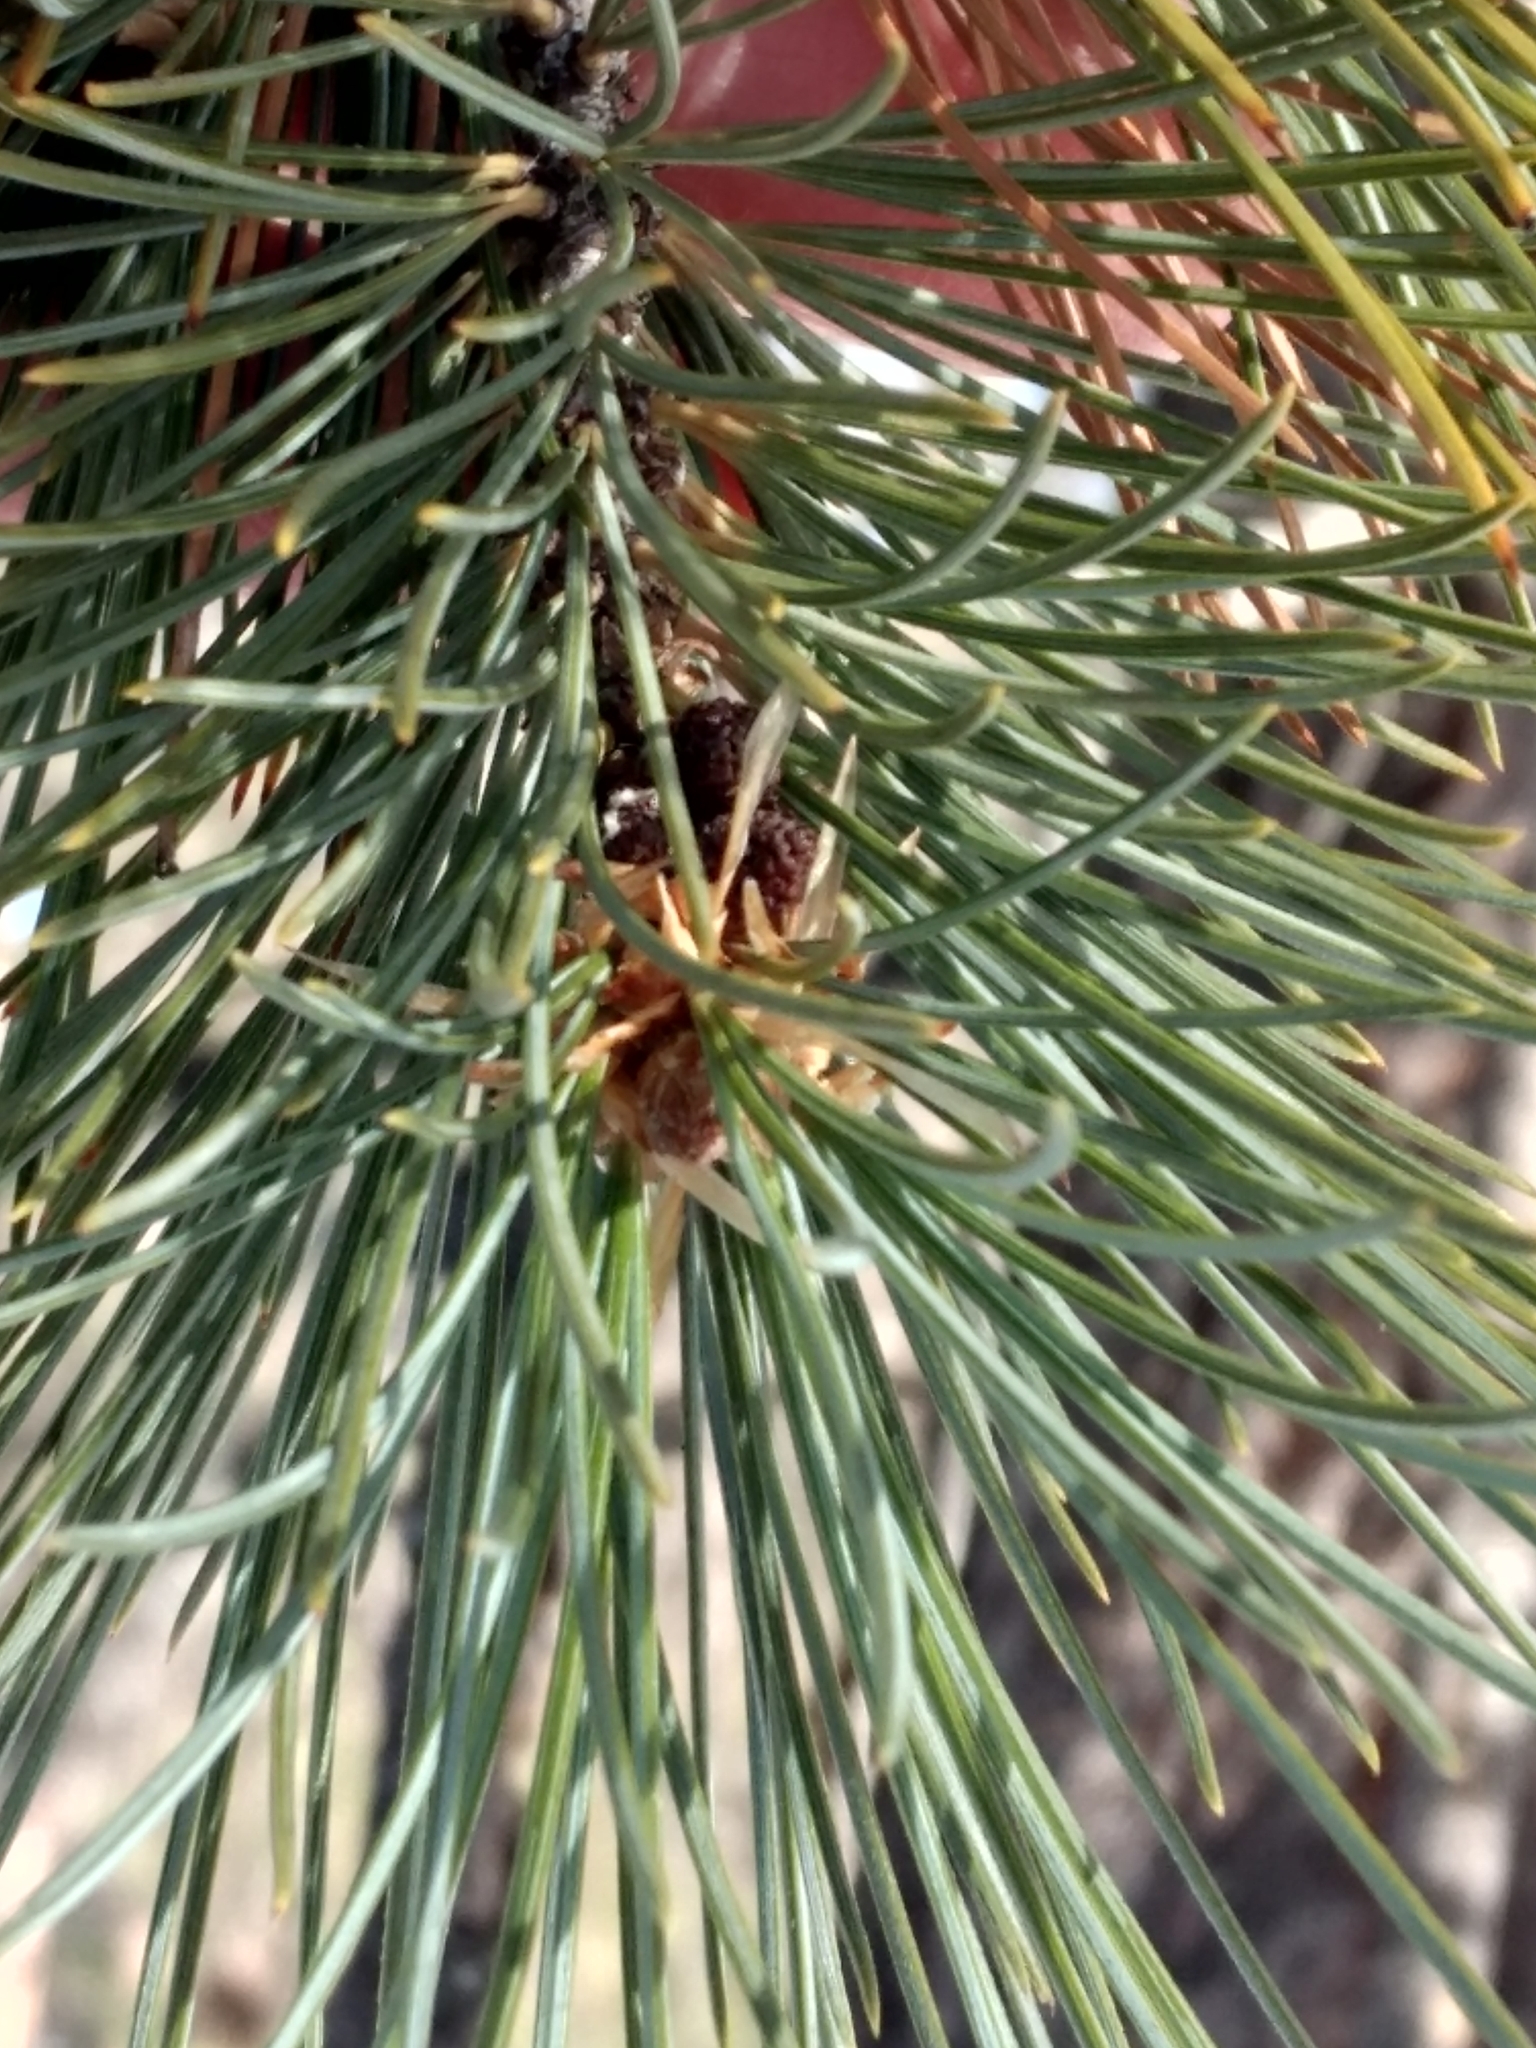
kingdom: Plantae
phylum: Tracheophyta
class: Pinopsida
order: Pinales
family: Pinaceae
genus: Pinus
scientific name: Pinus lambertiana
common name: Sugar pine
